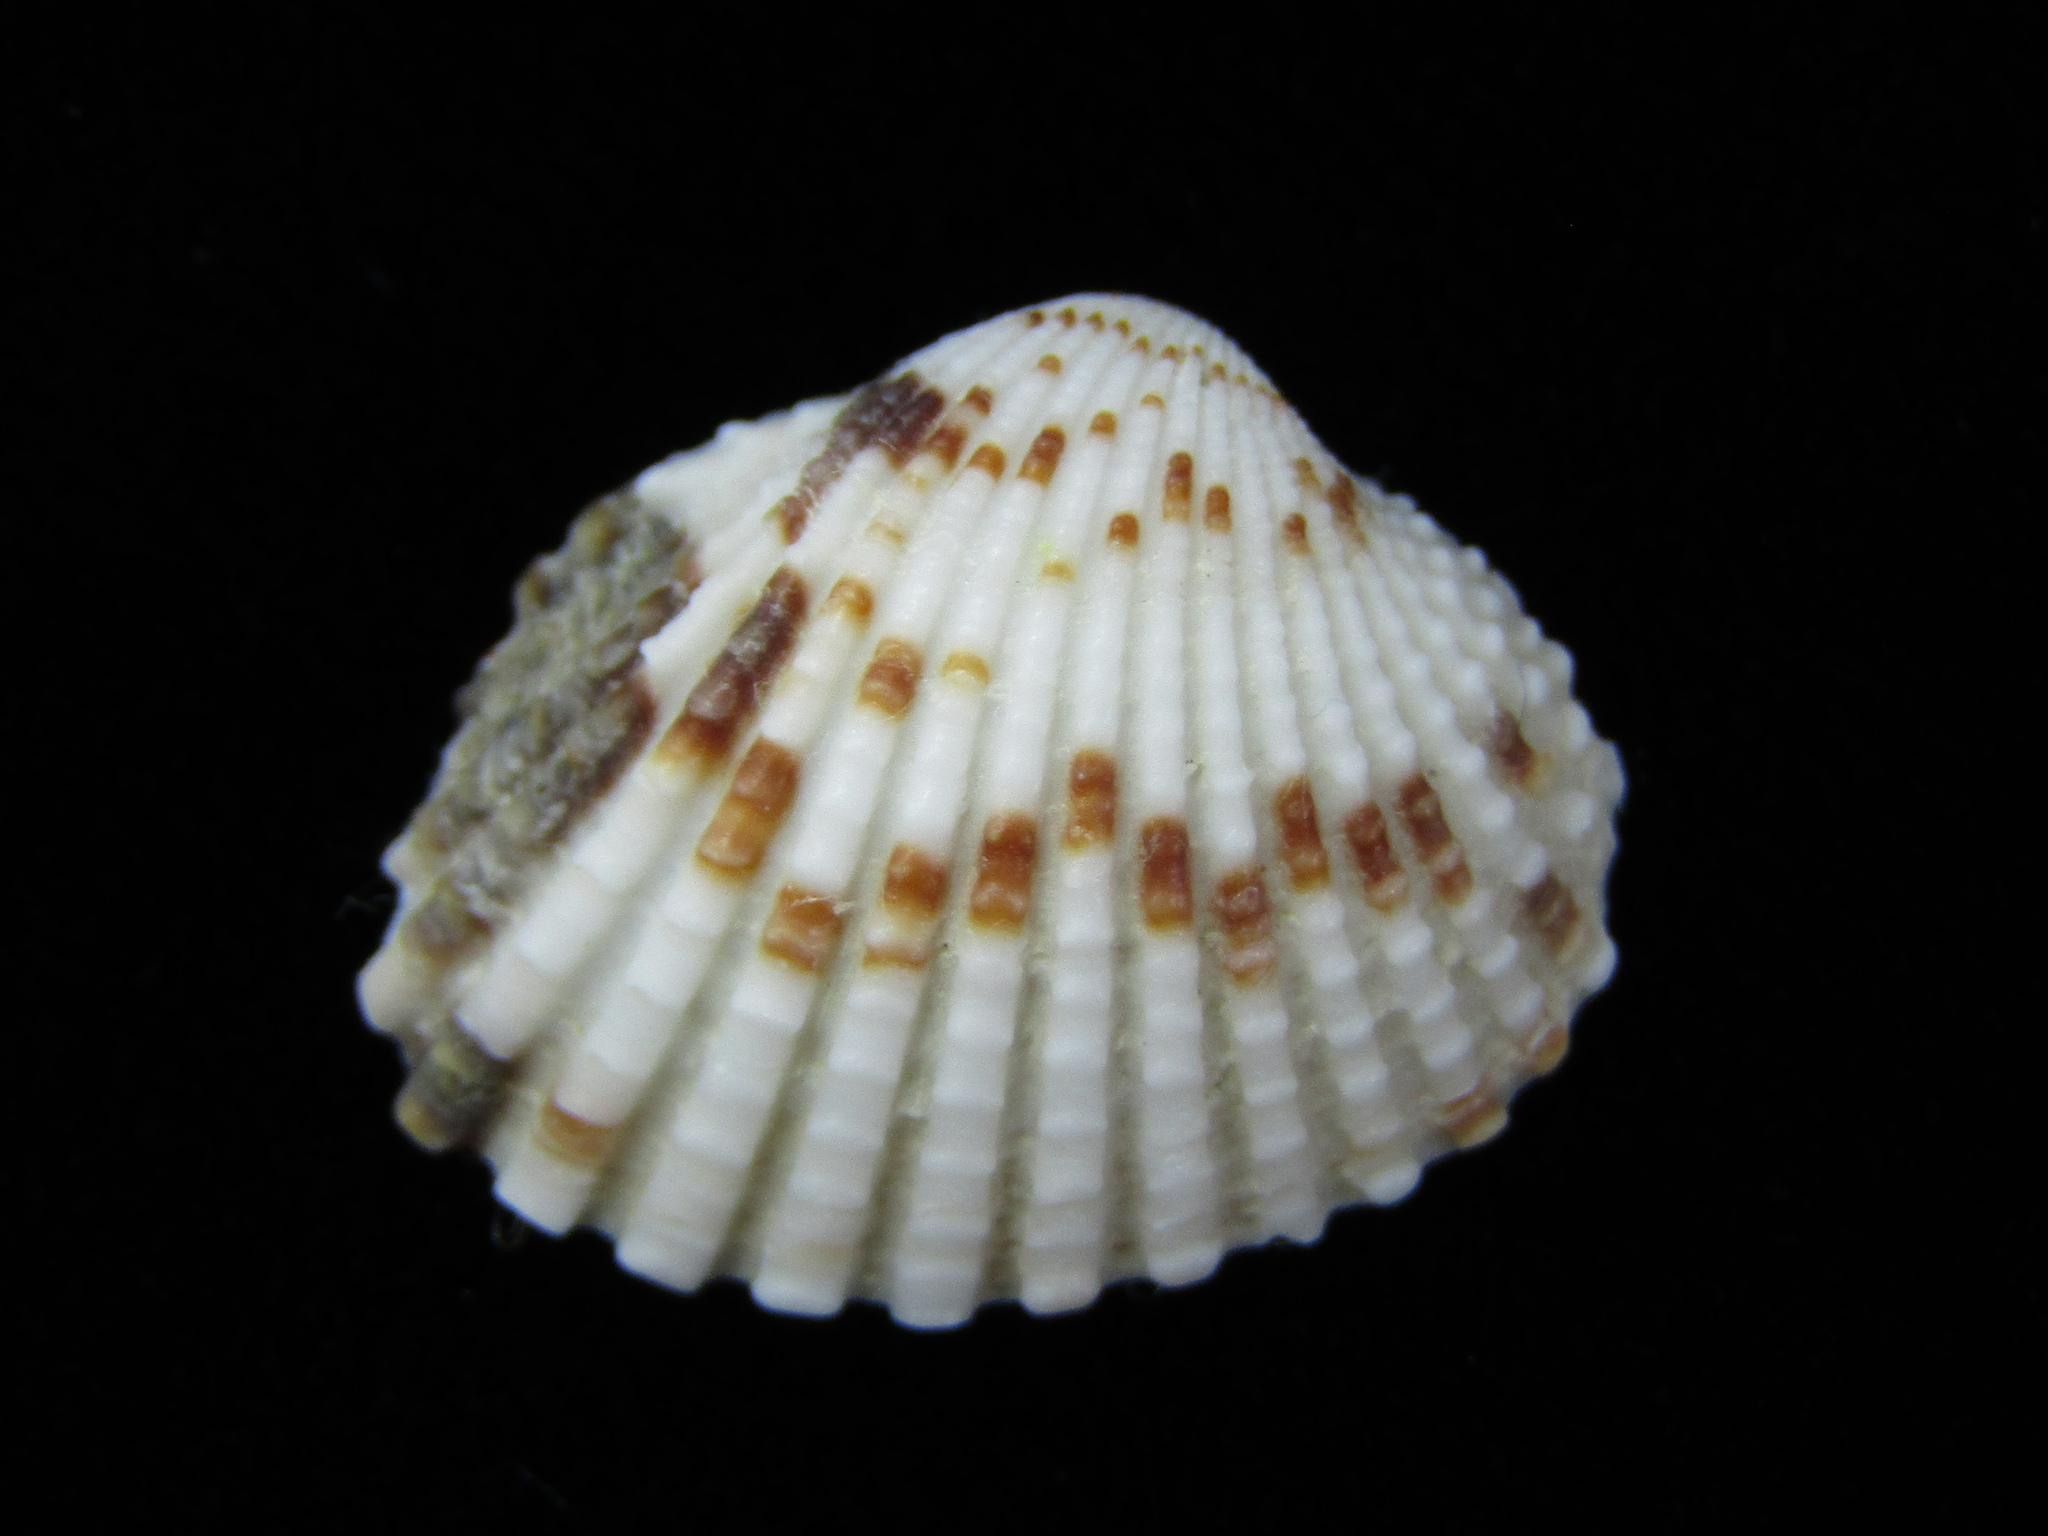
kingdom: Animalia
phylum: Mollusca
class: Bivalvia
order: Carditida
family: Carditidae
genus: Purpurocardia
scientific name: Purpurocardia reinga
